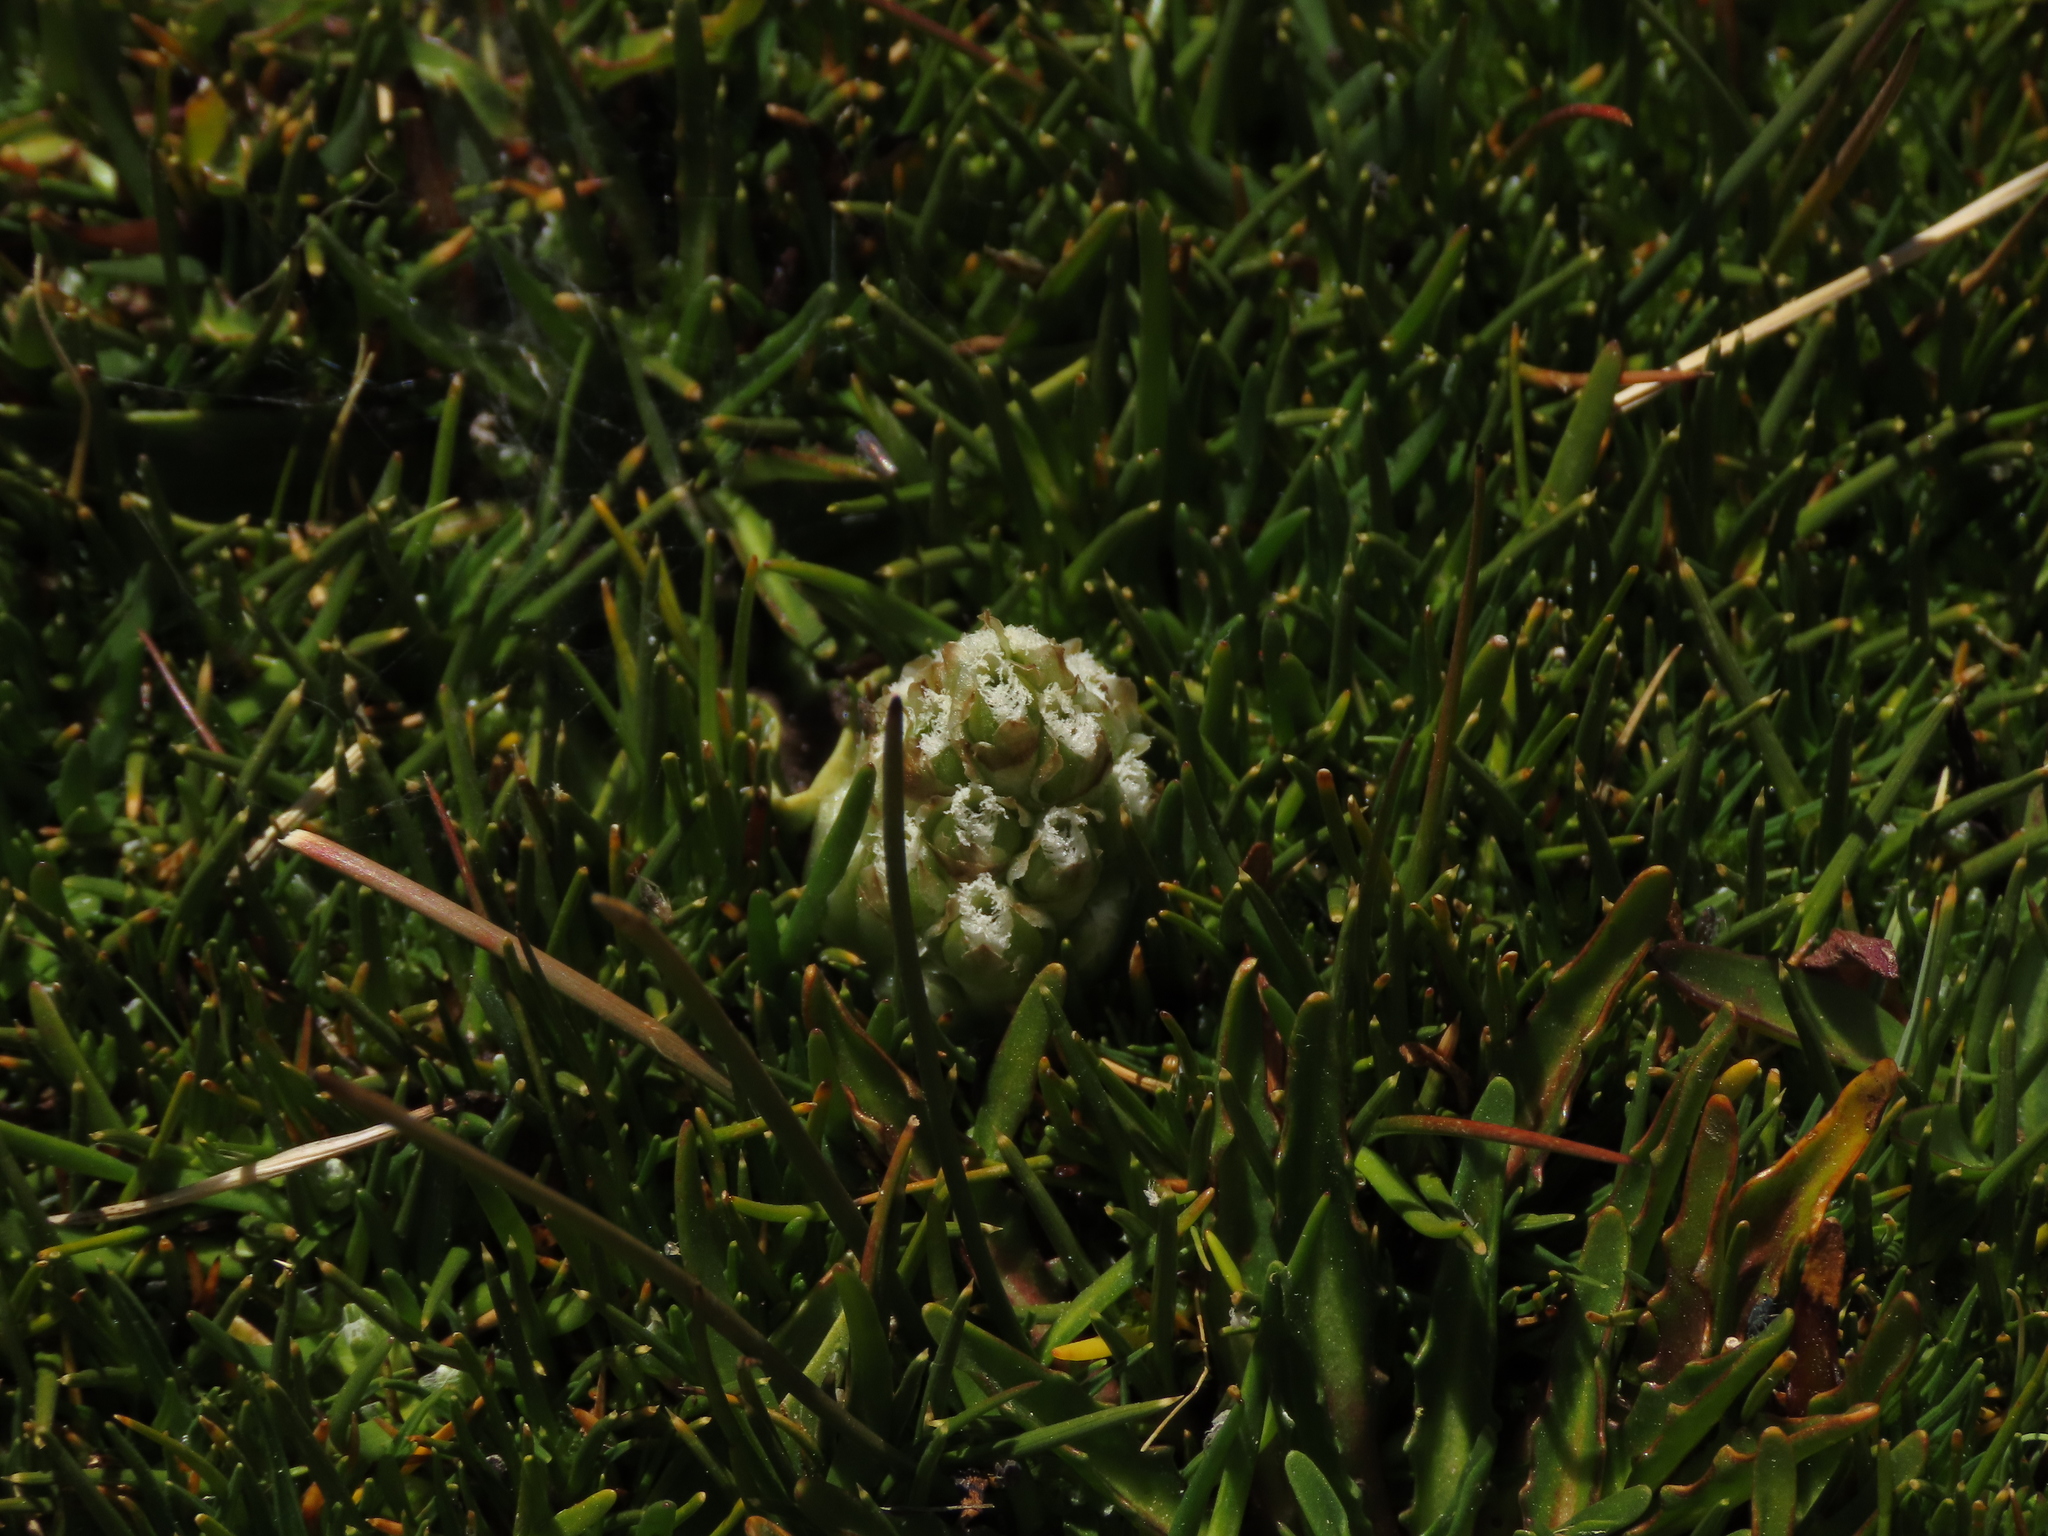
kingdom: Plantae
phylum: Tracheophyta
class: Liliopsida
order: Asparagales
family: Orchidaceae
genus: Myrosmodes
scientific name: Myrosmodes nervosa
